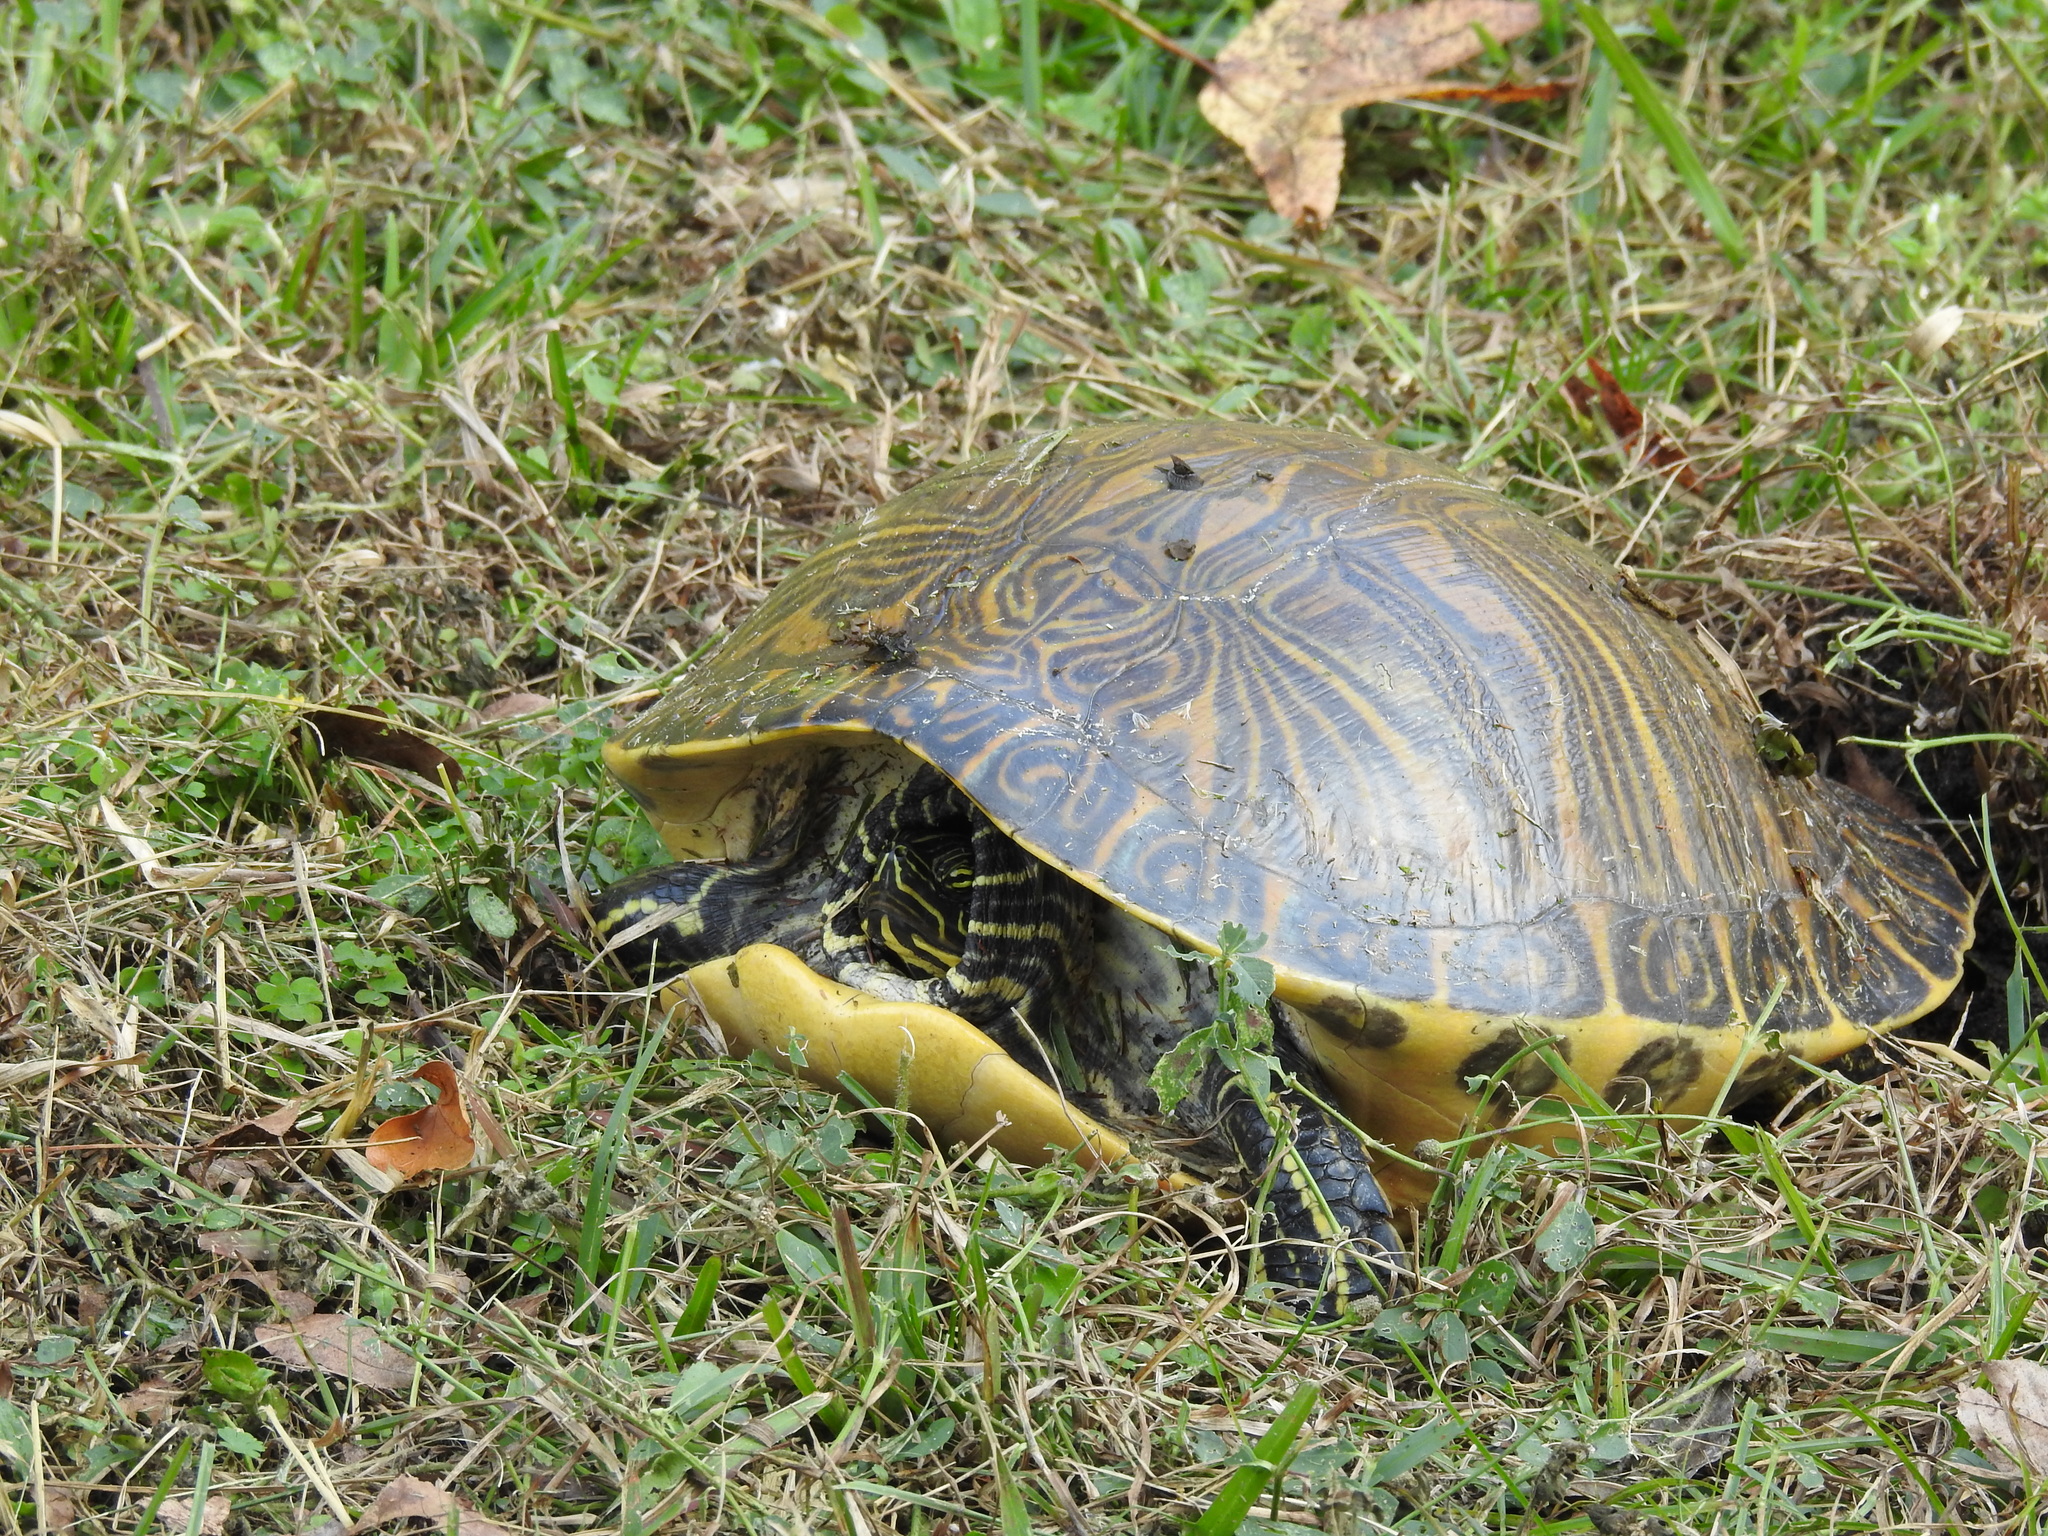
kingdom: Animalia
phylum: Chordata
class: Testudines
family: Emydidae
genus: Pseudemys
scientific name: Pseudemys peninsularis
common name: Peninsula cooter
